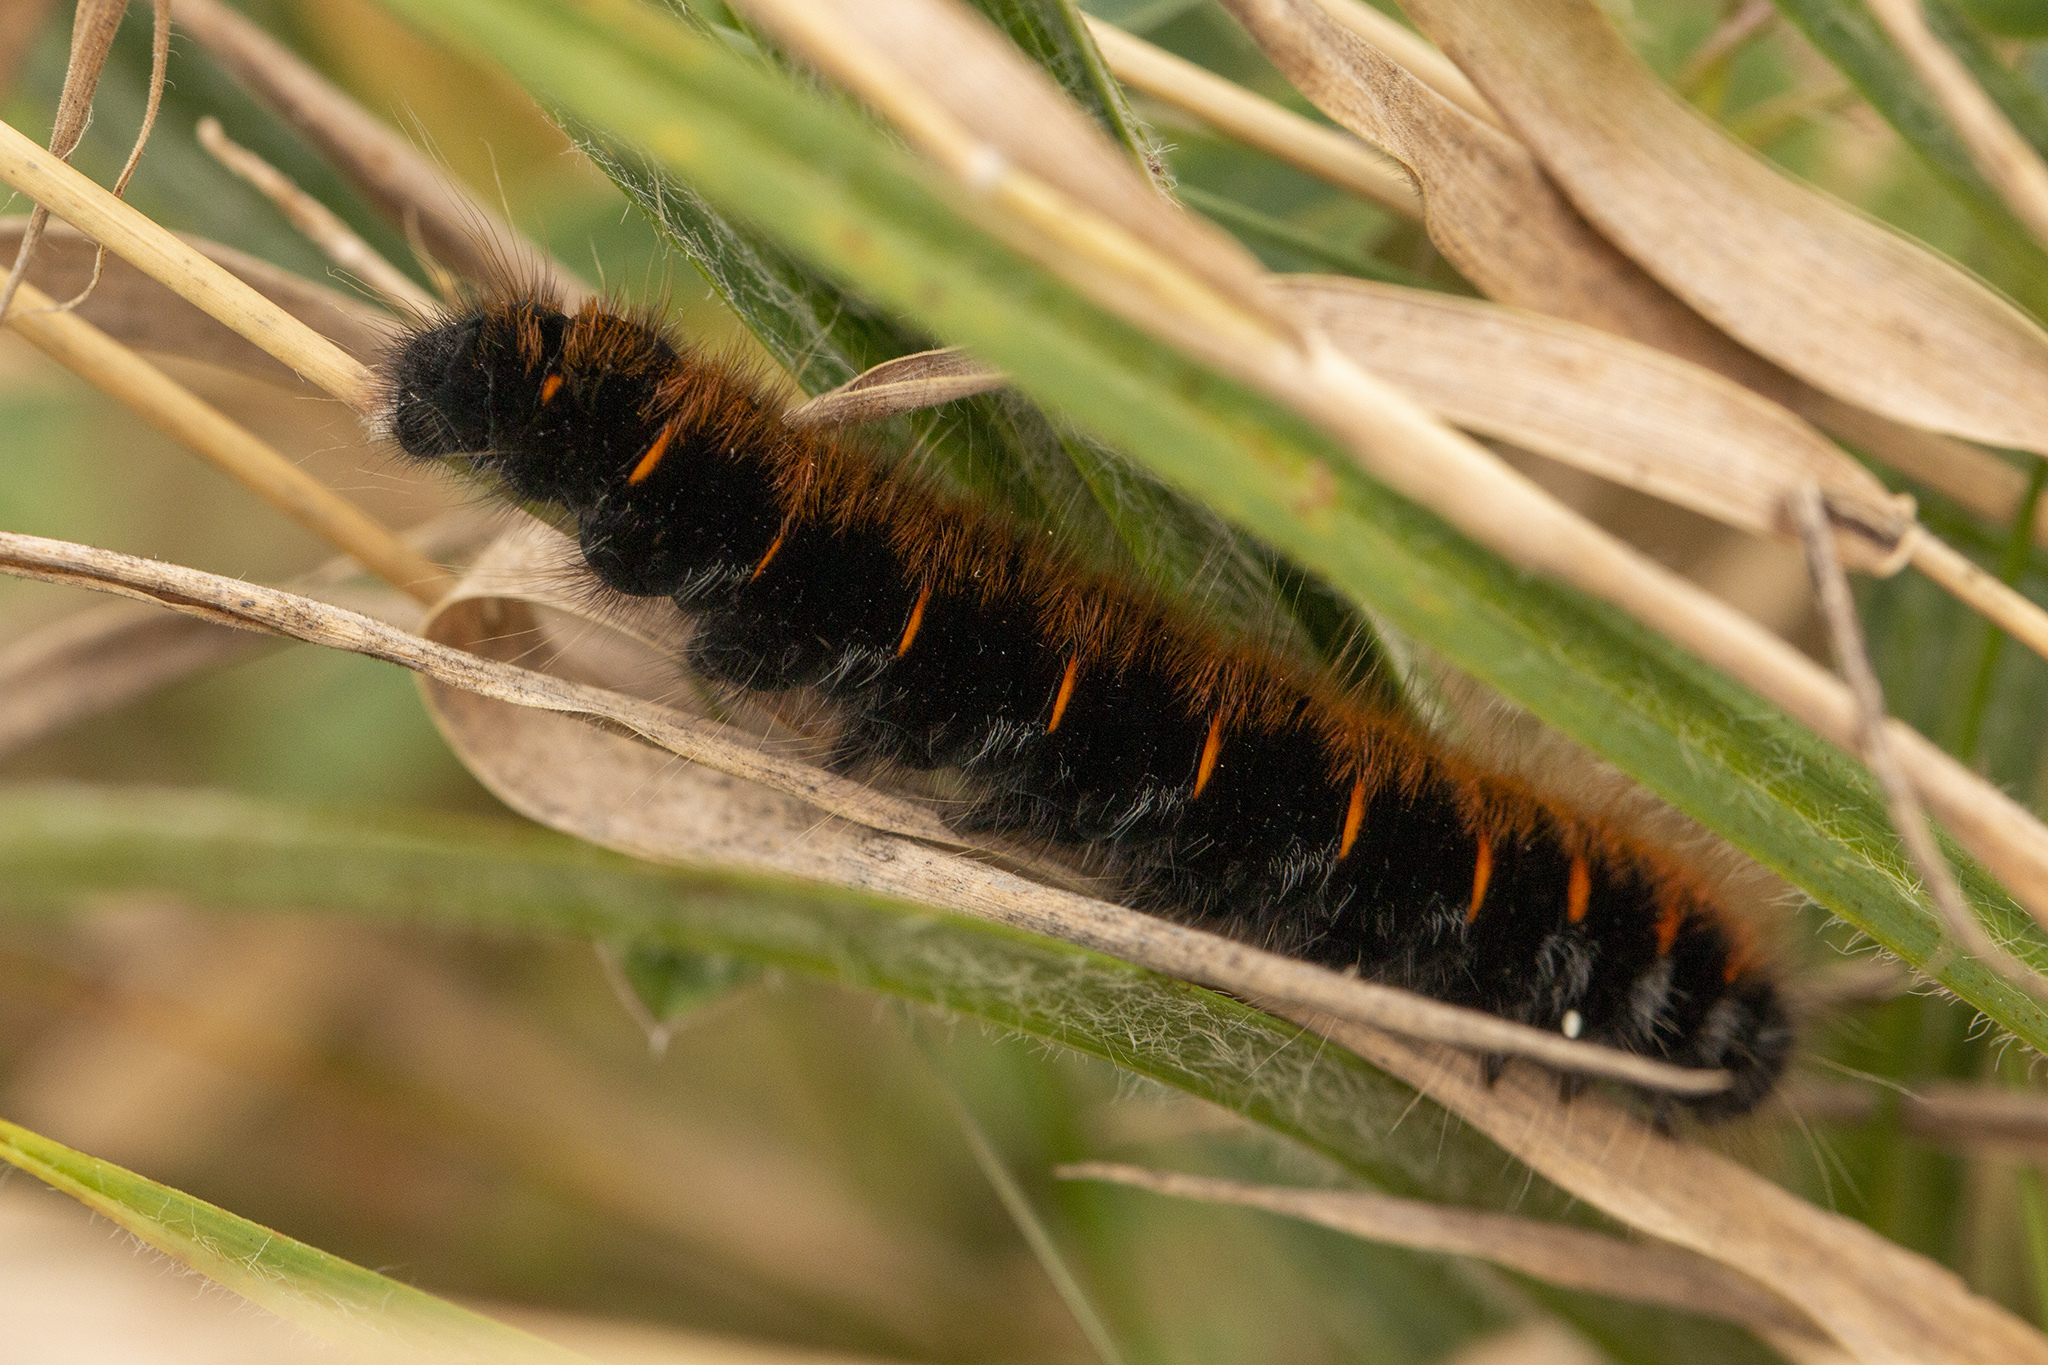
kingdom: Animalia
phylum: Arthropoda
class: Insecta
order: Lepidoptera
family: Lasiocampidae
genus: Macrothylacia
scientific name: Macrothylacia rubi
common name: Fox moth
